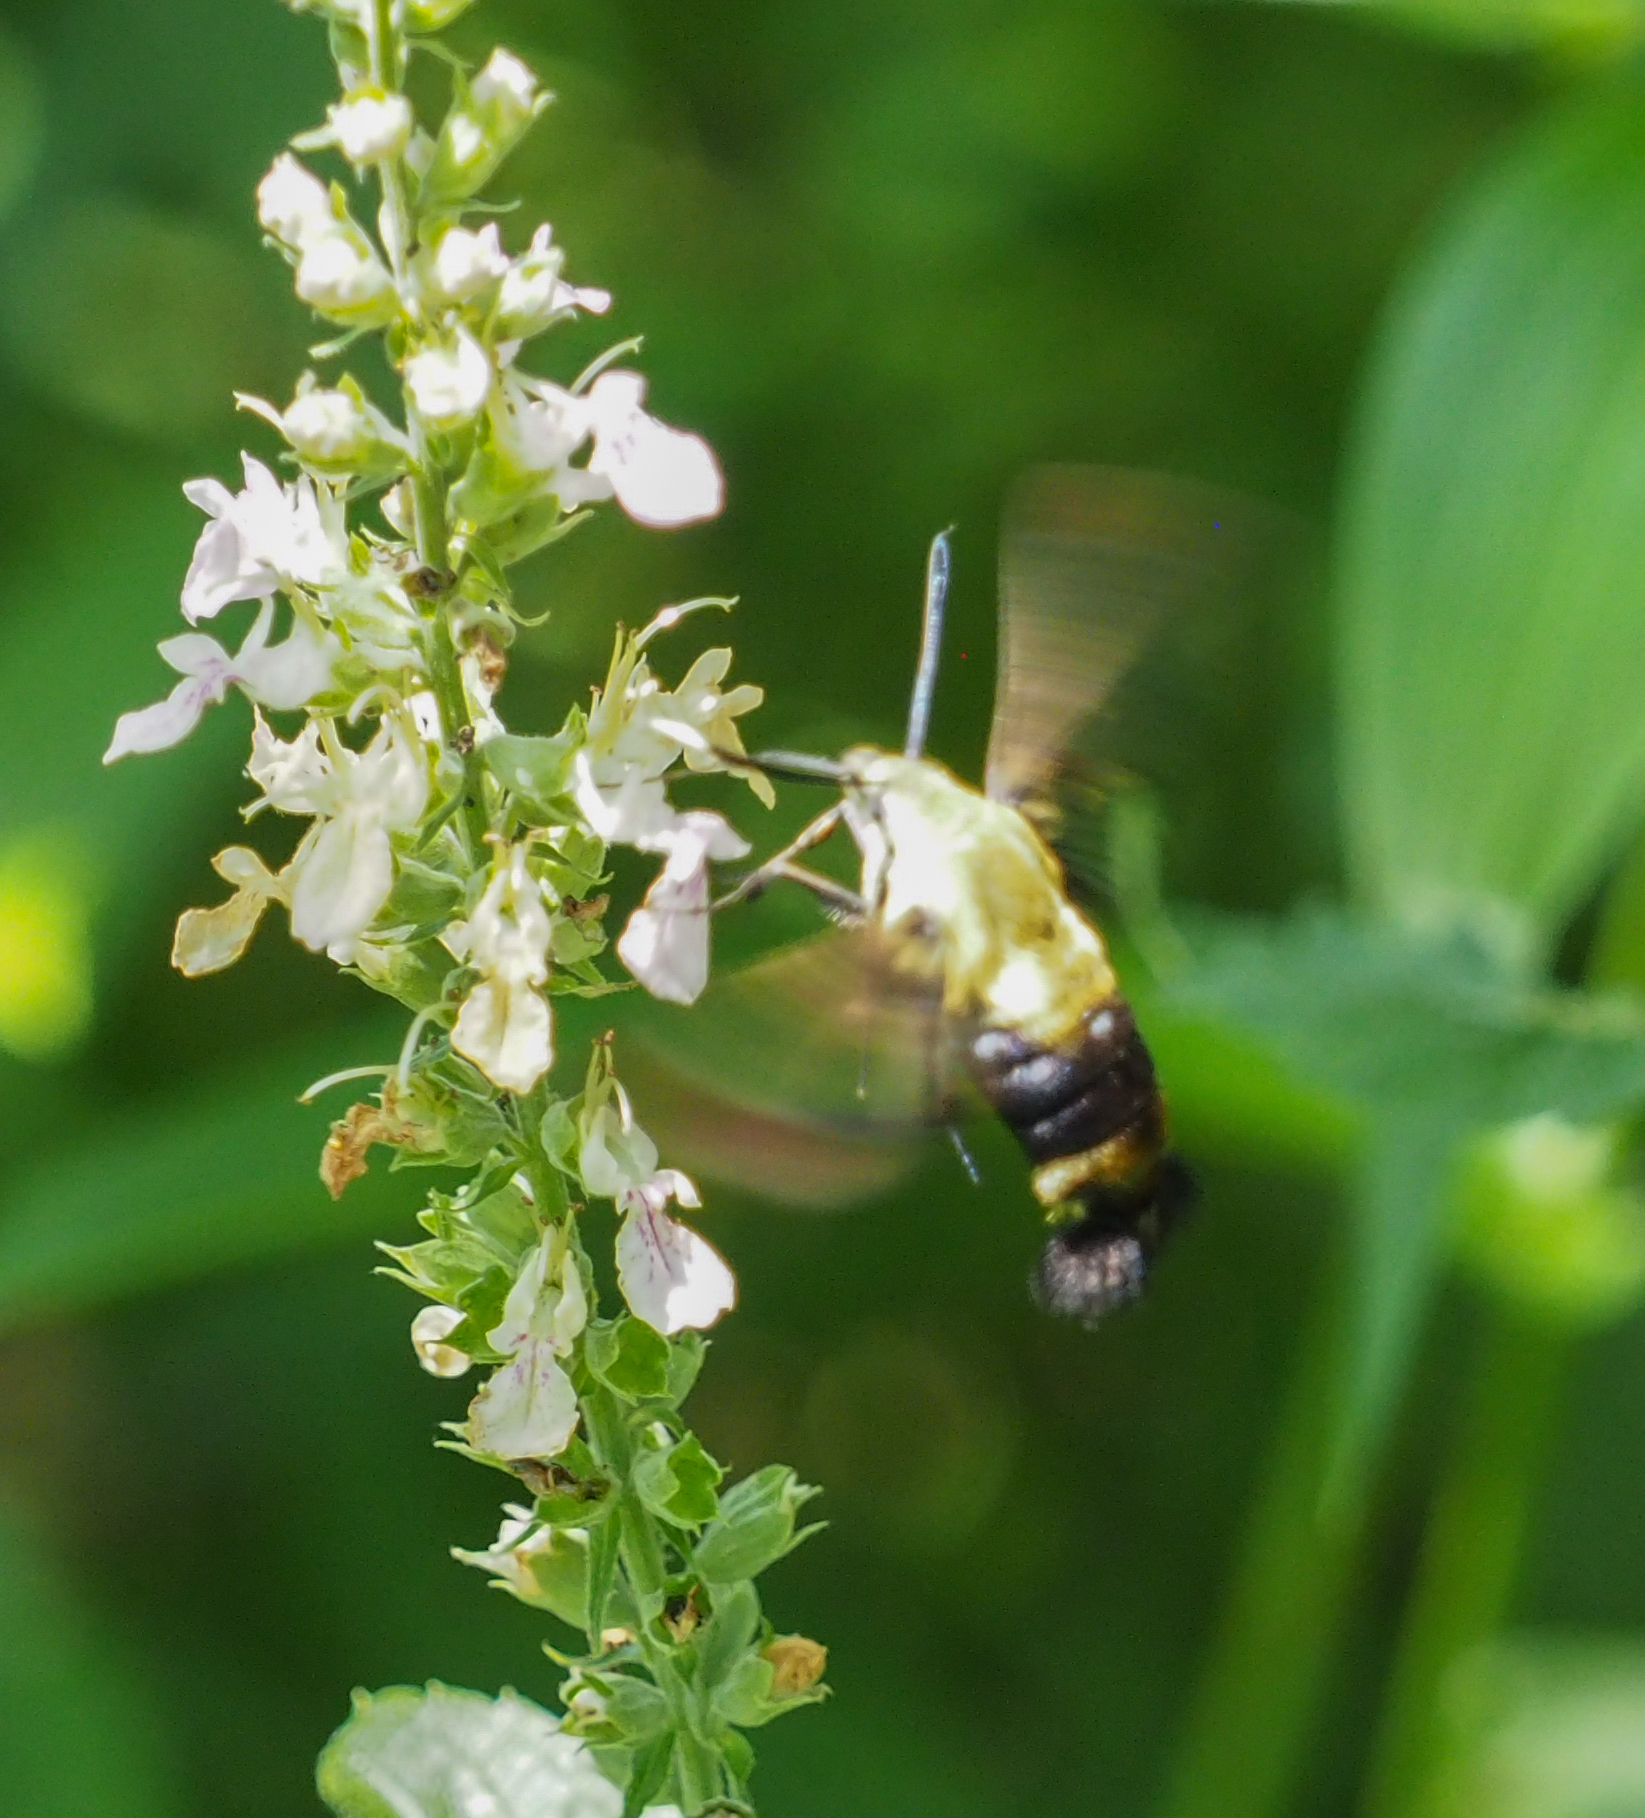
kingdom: Animalia
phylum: Arthropoda
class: Insecta
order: Lepidoptera
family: Sphingidae
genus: Hemaris
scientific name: Hemaris diffinis
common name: Bumblebee moth
